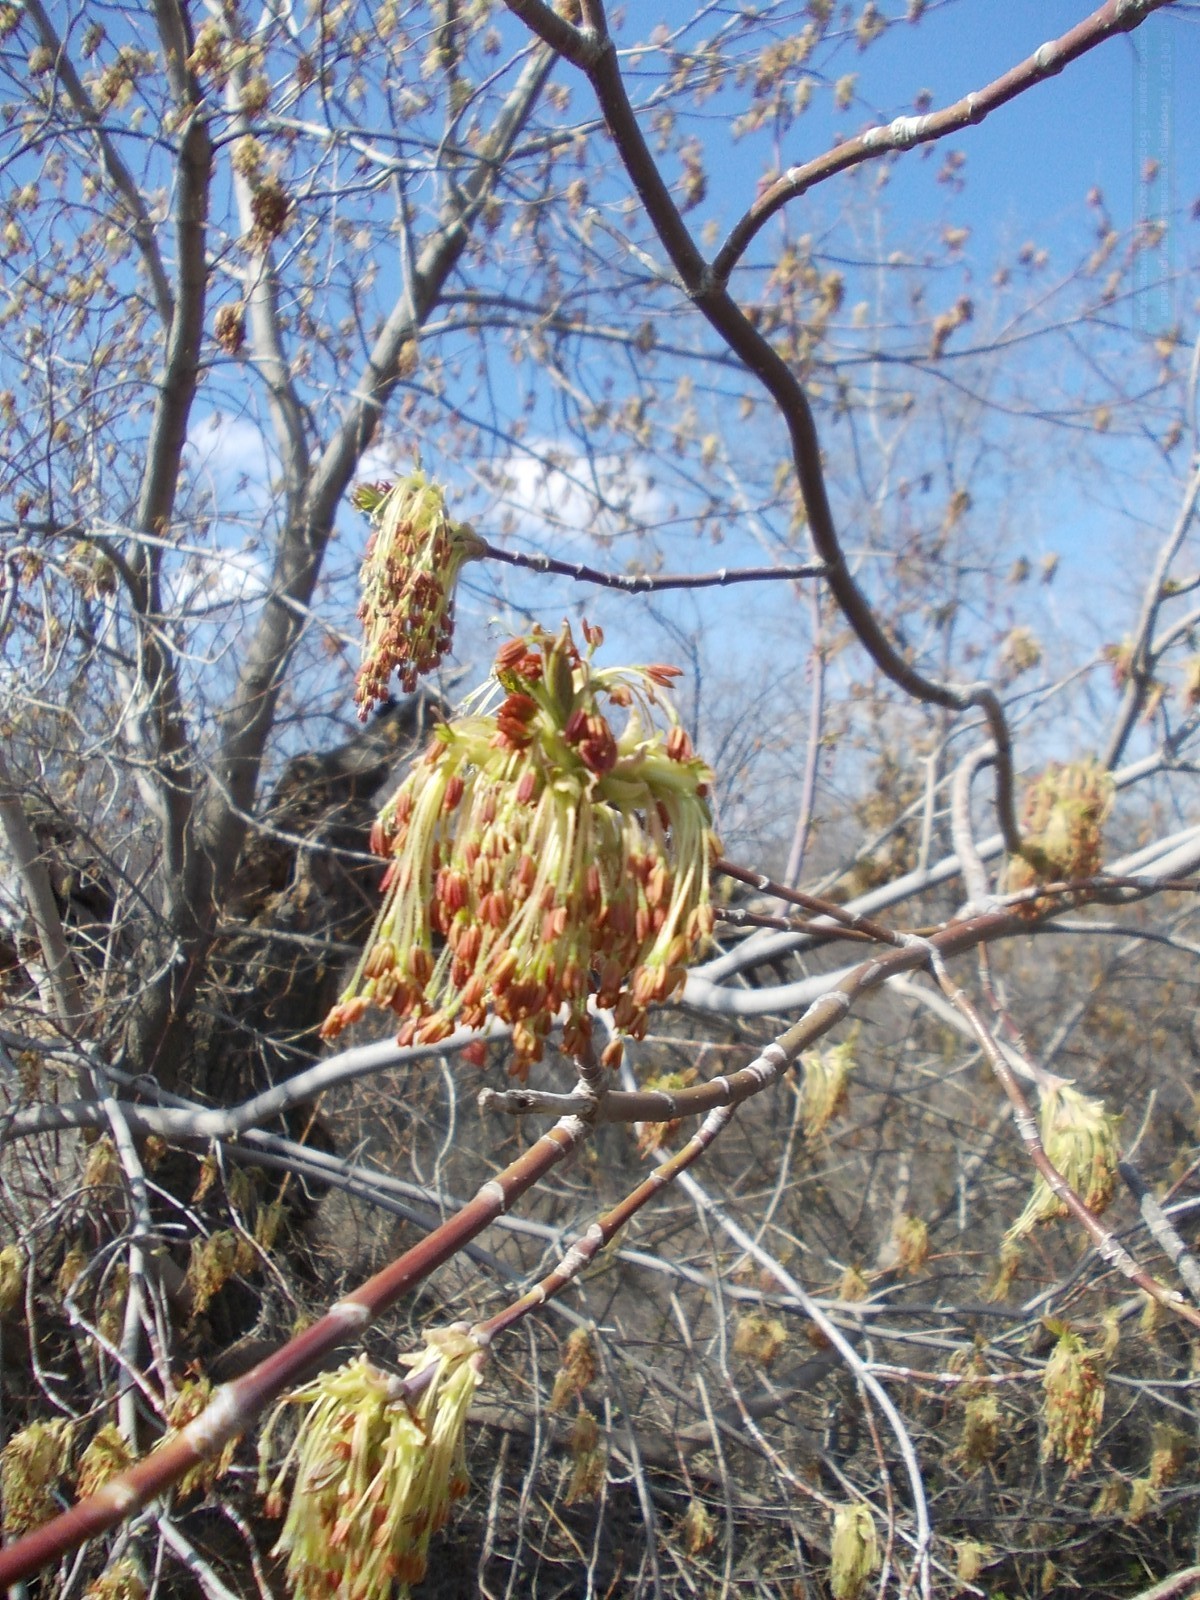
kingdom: Plantae
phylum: Tracheophyta
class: Magnoliopsida
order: Sapindales
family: Sapindaceae
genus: Acer
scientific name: Acer negundo
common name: Ashleaf maple
